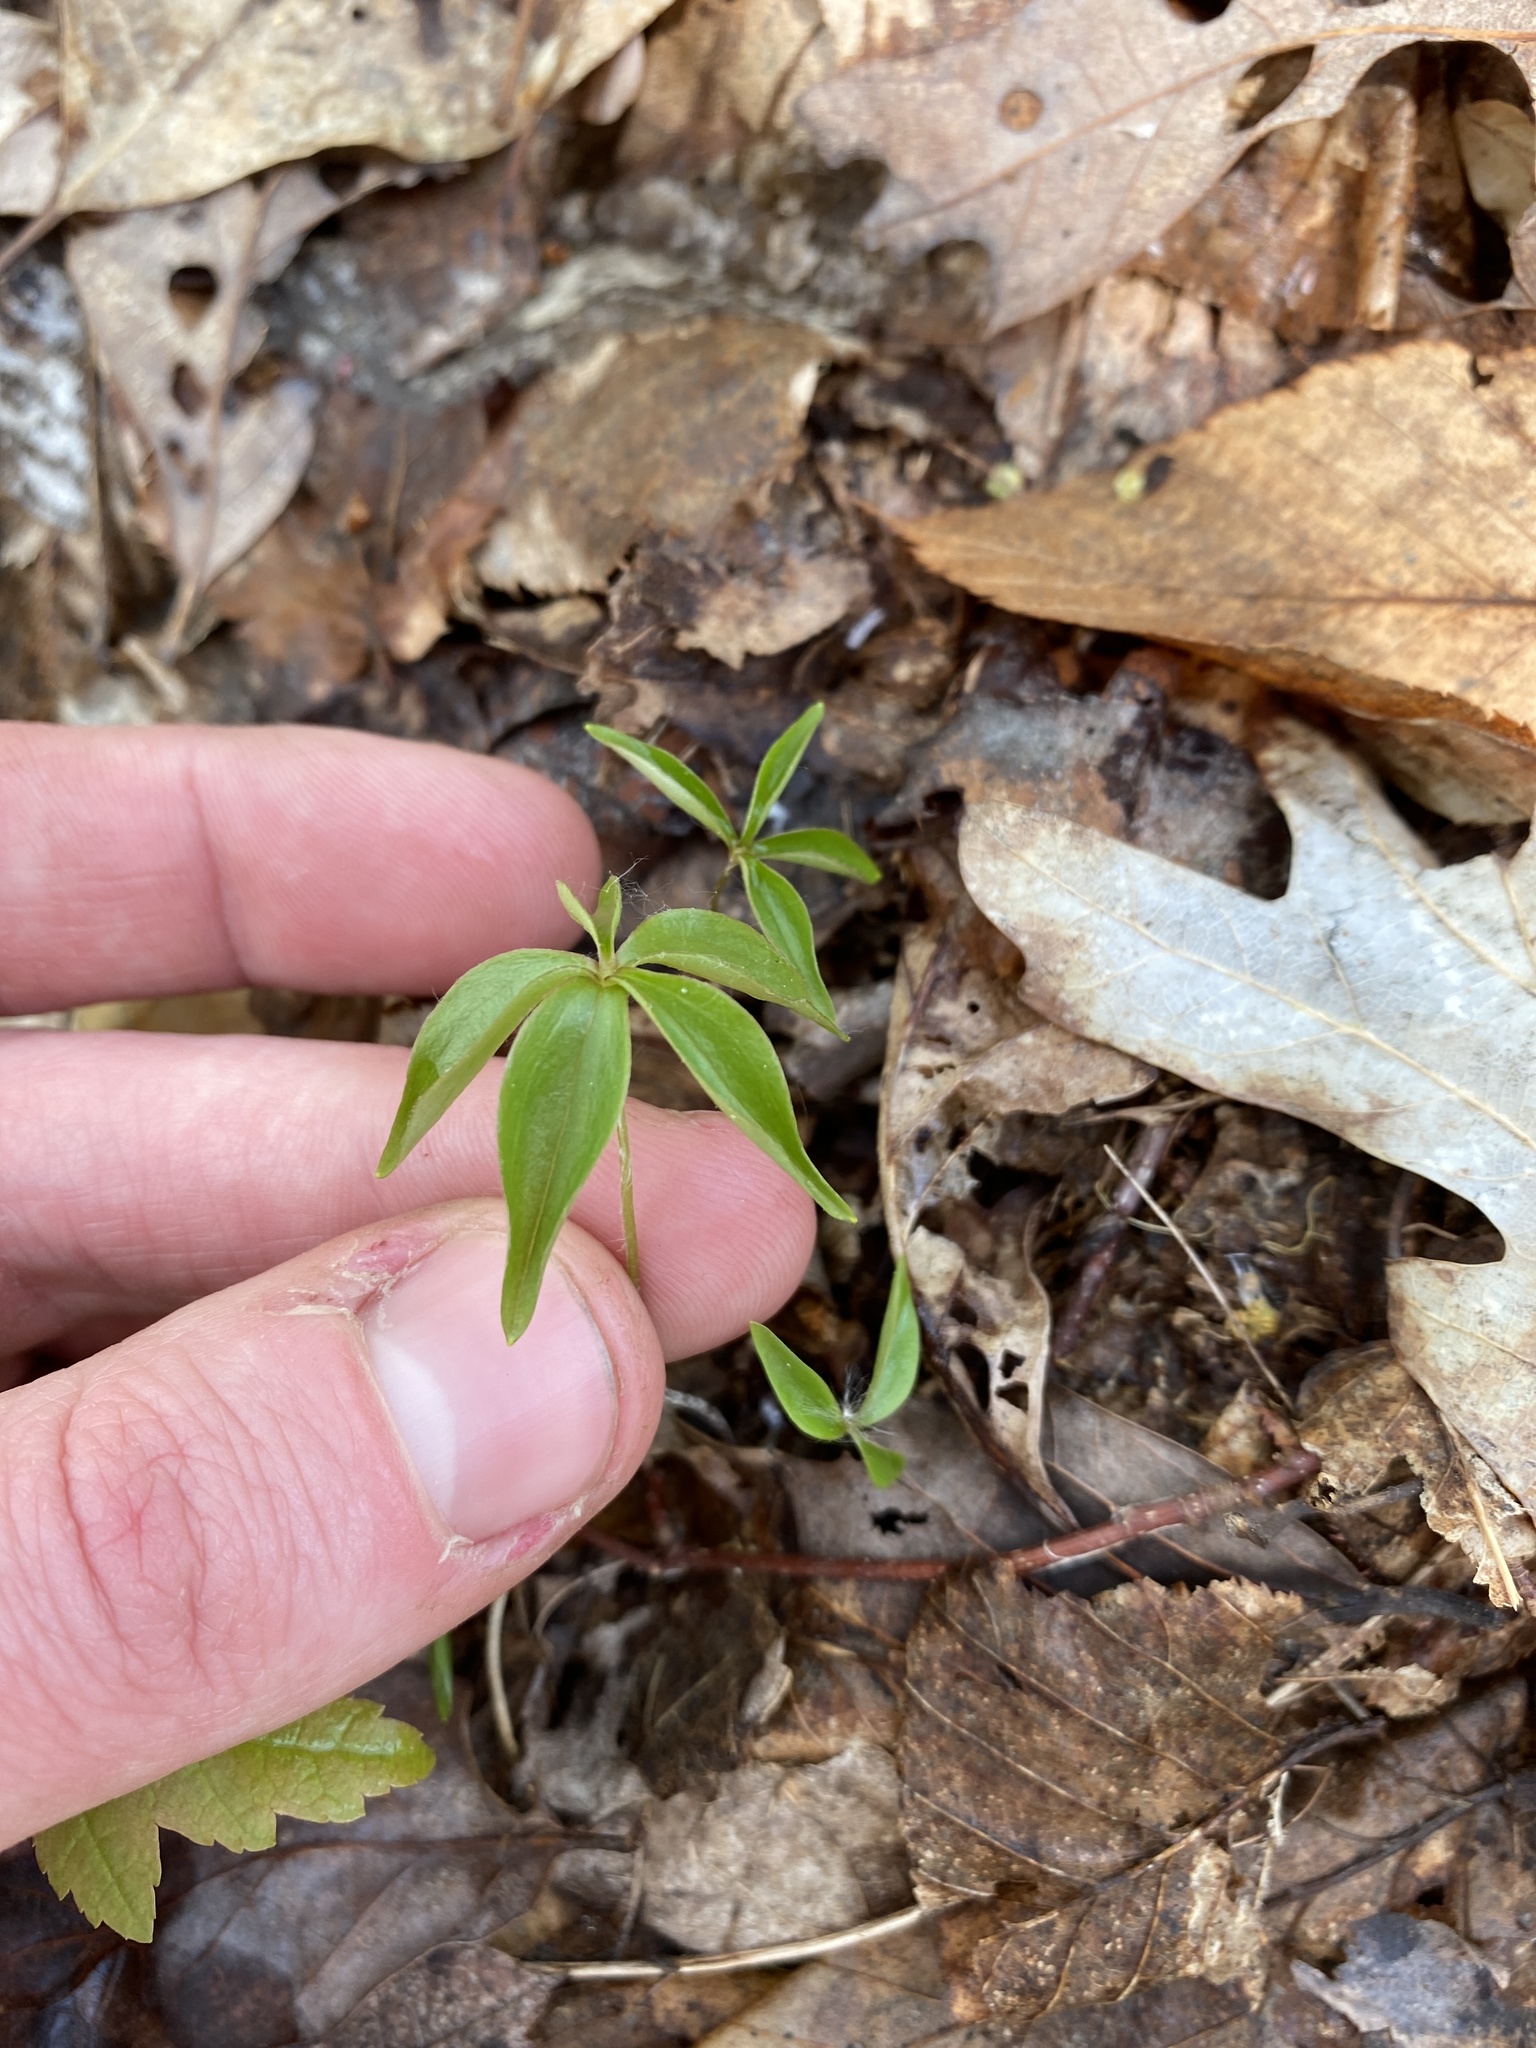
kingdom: Plantae
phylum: Tracheophyta
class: Liliopsida
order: Liliales
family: Liliaceae
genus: Medeola
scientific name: Medeola virginiana
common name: Indian cucumber-root
